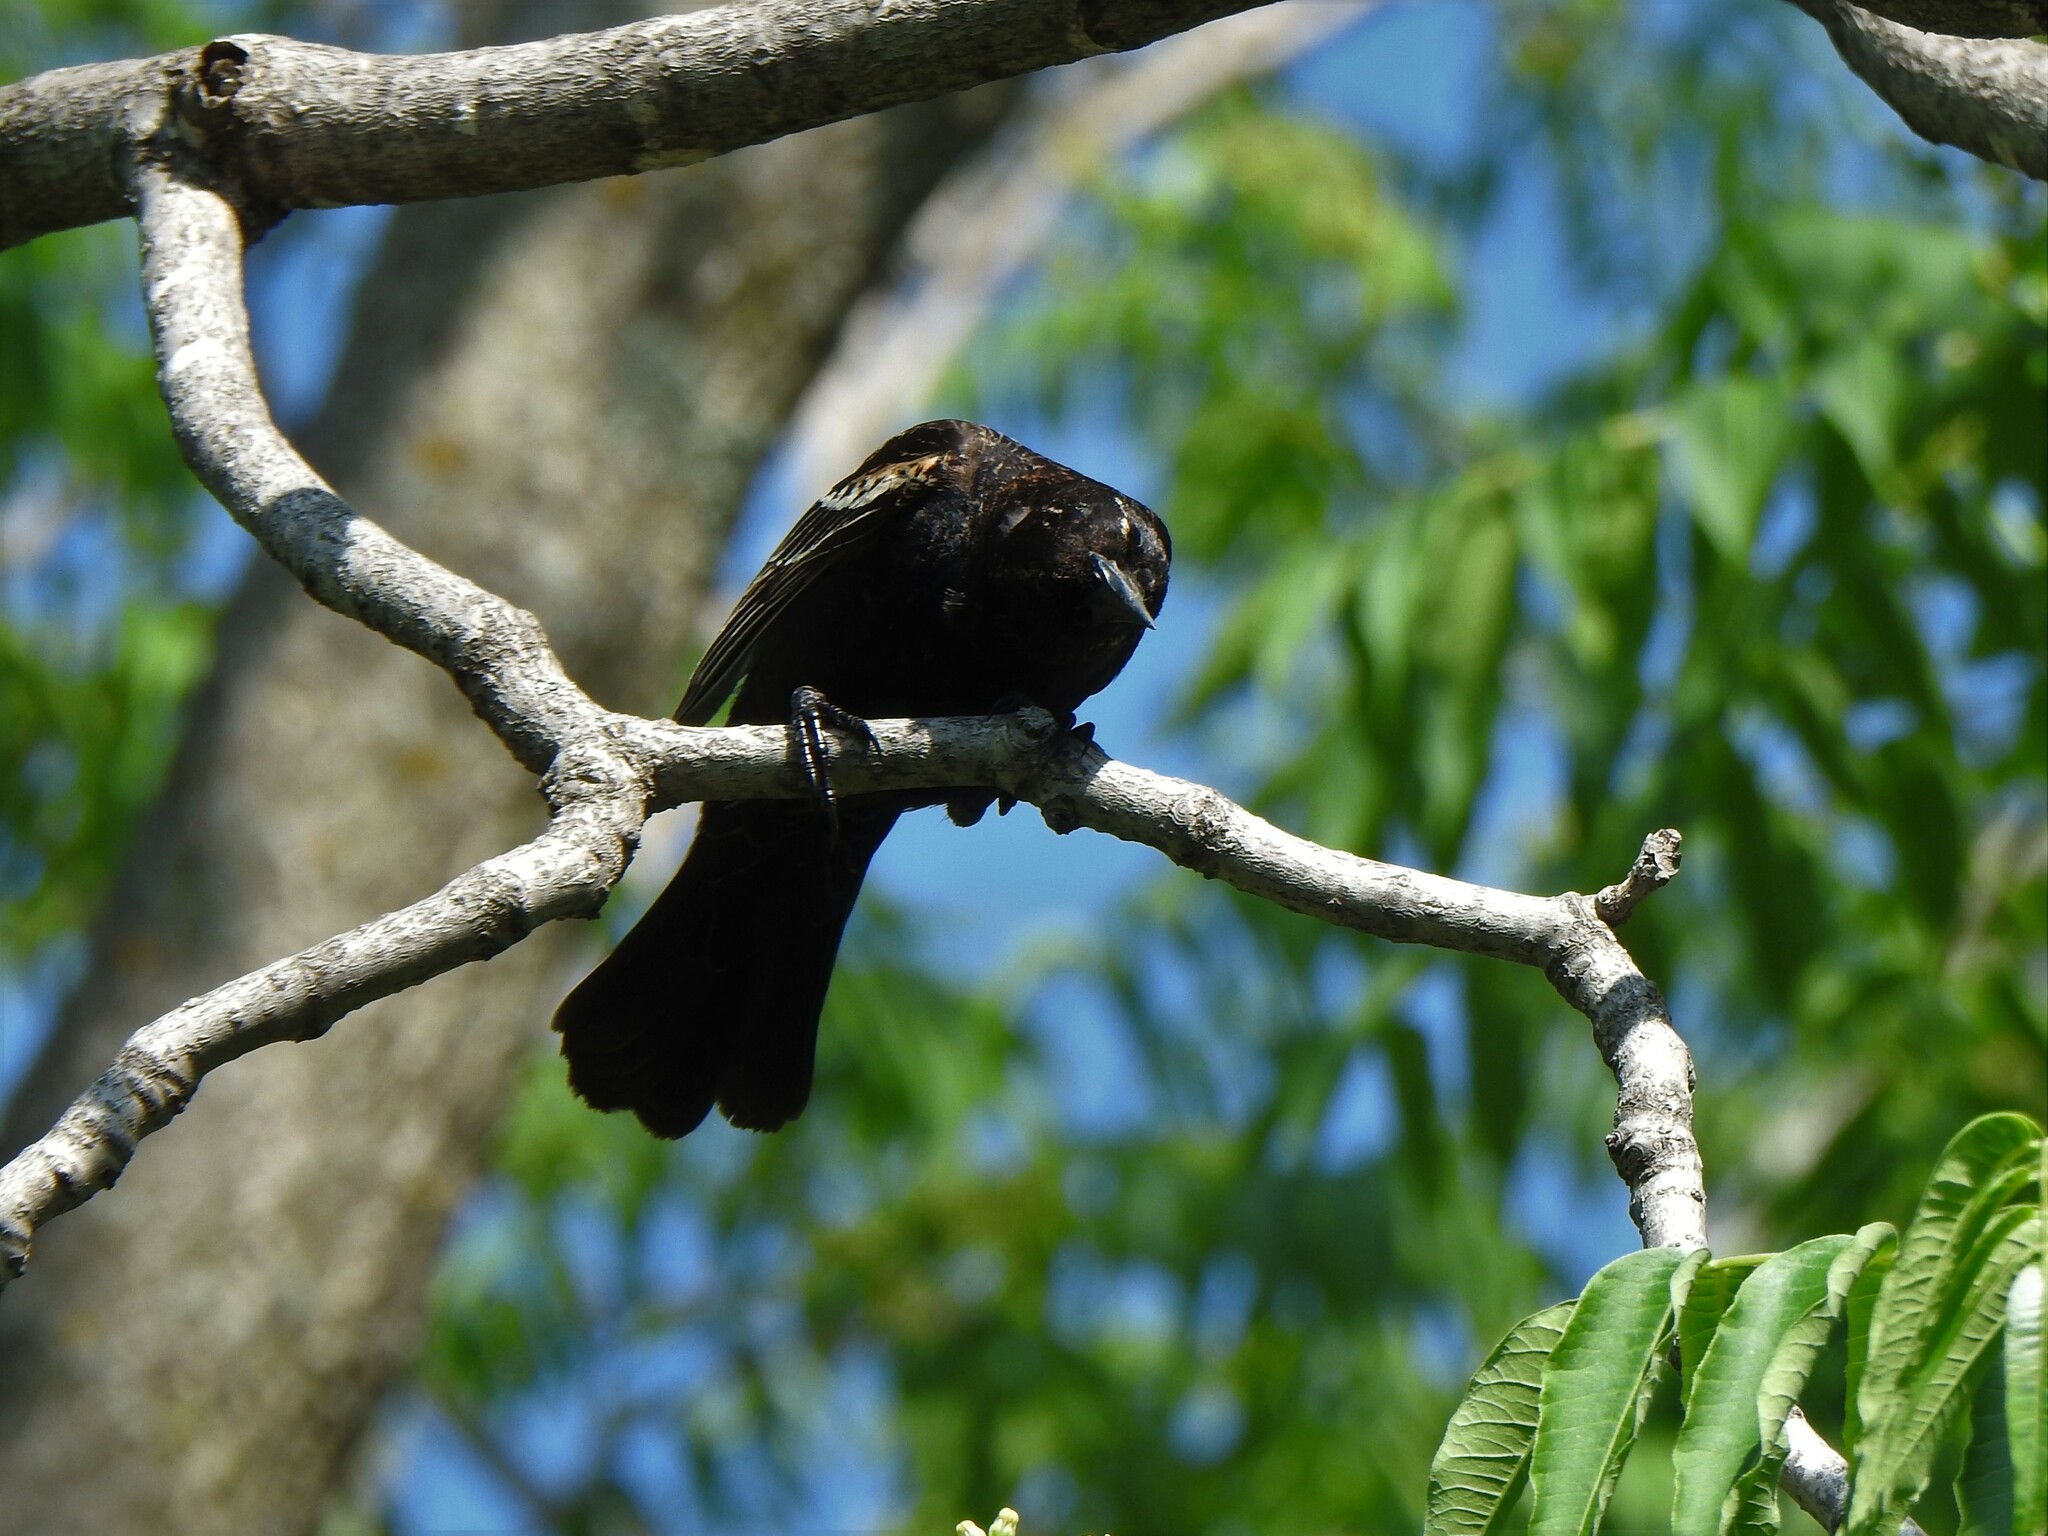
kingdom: Animalia
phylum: Chordata
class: Aves
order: Passeriformes
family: Icteridae
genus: Agelaius
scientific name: Agelaius phoeniceus
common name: Red-winged blackbird
